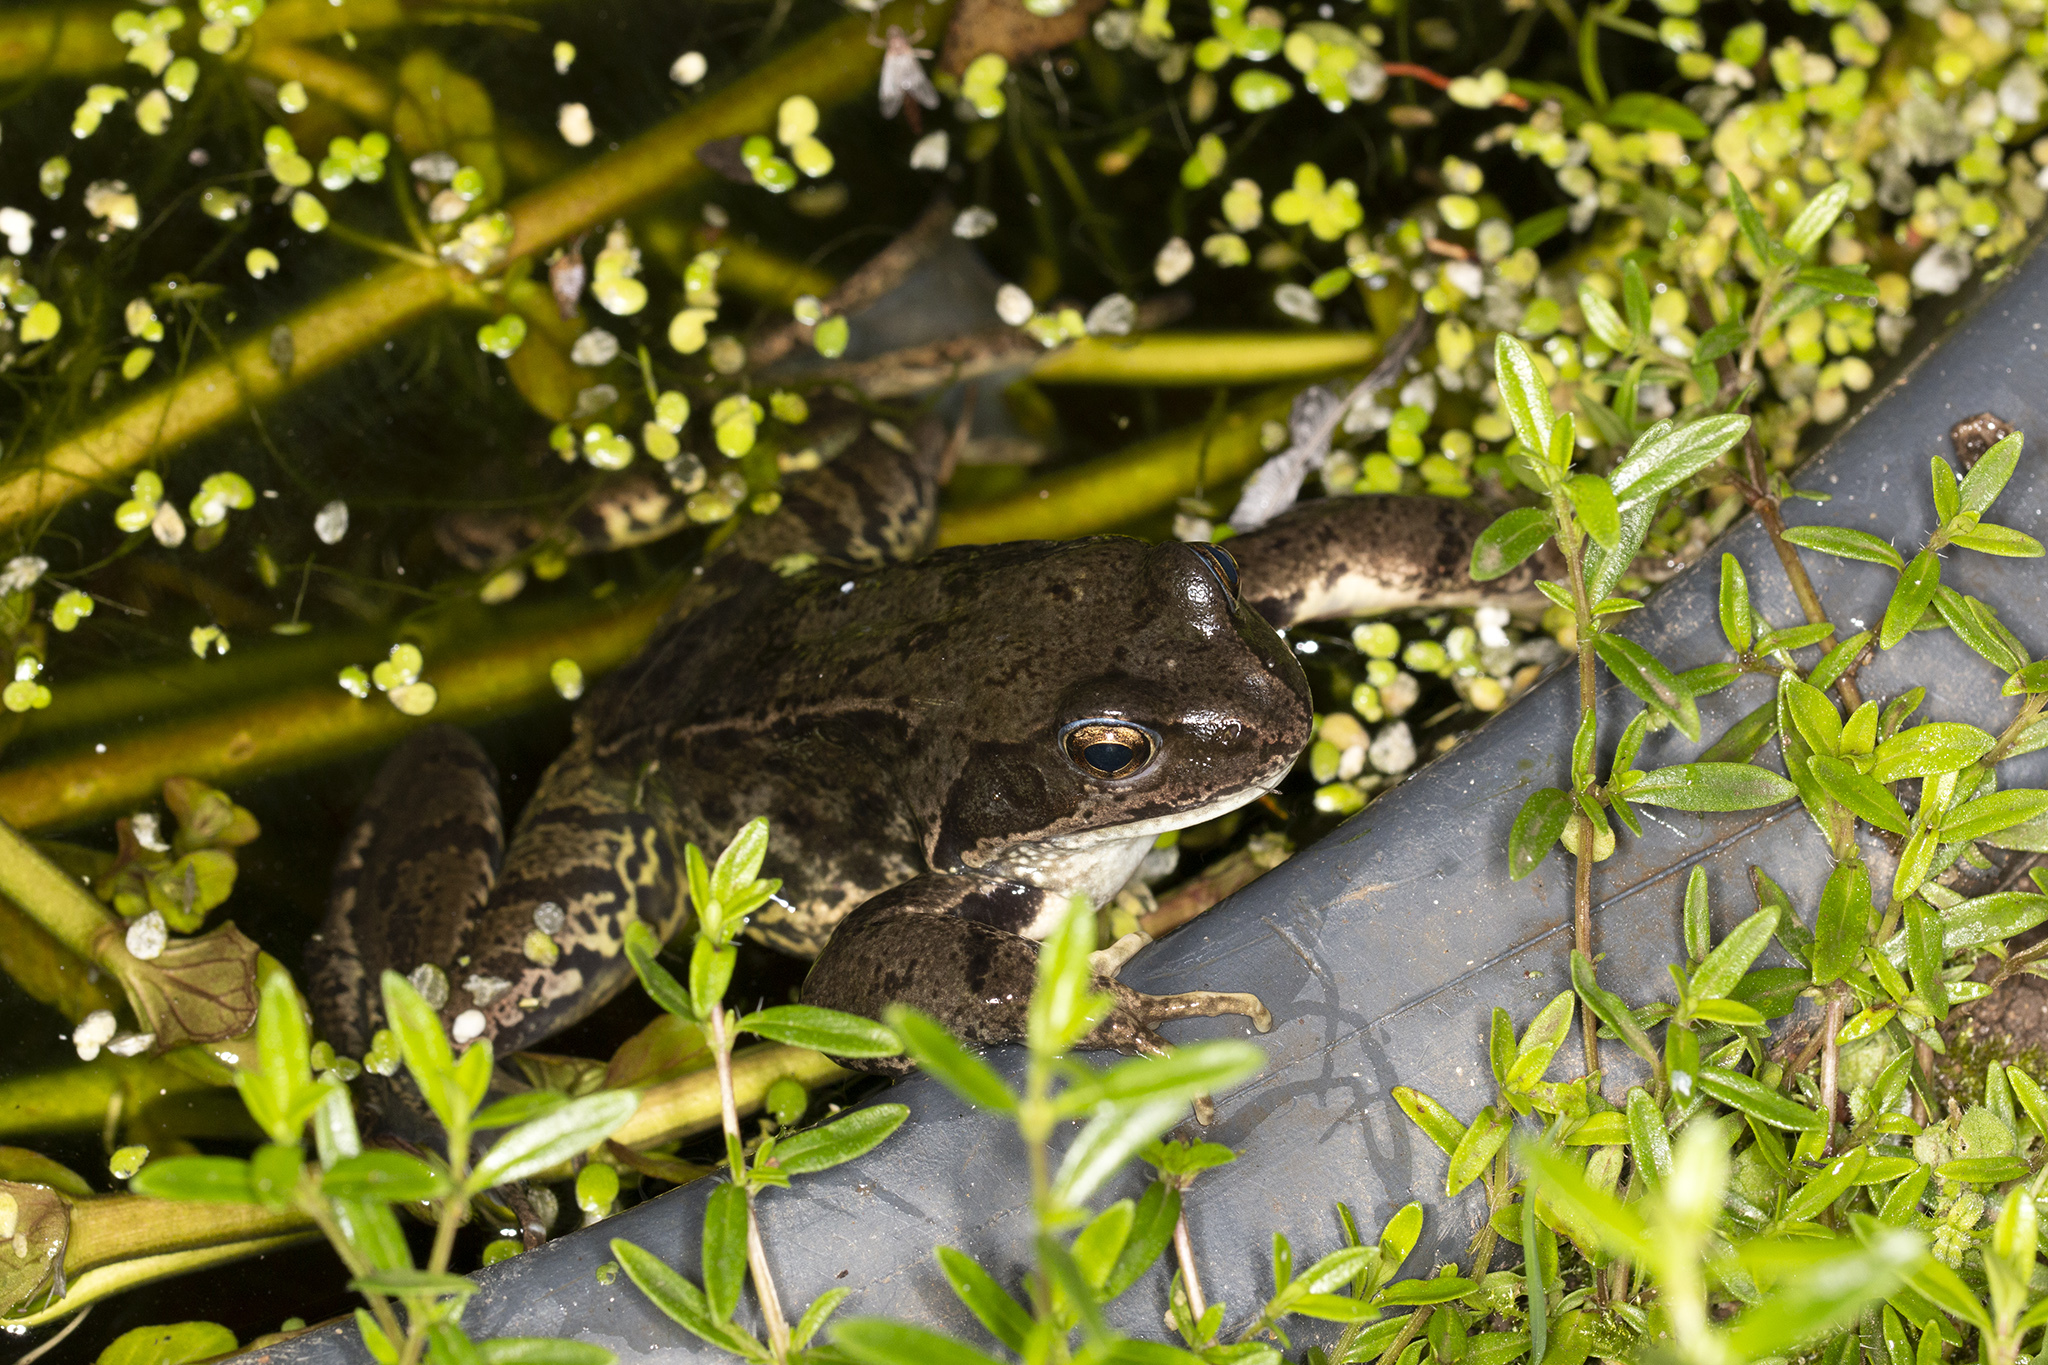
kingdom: Animalia
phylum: Chordata
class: Amphibia
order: Anura
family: Ranidae
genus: Rana
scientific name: Rana temporaria
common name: Common frog
